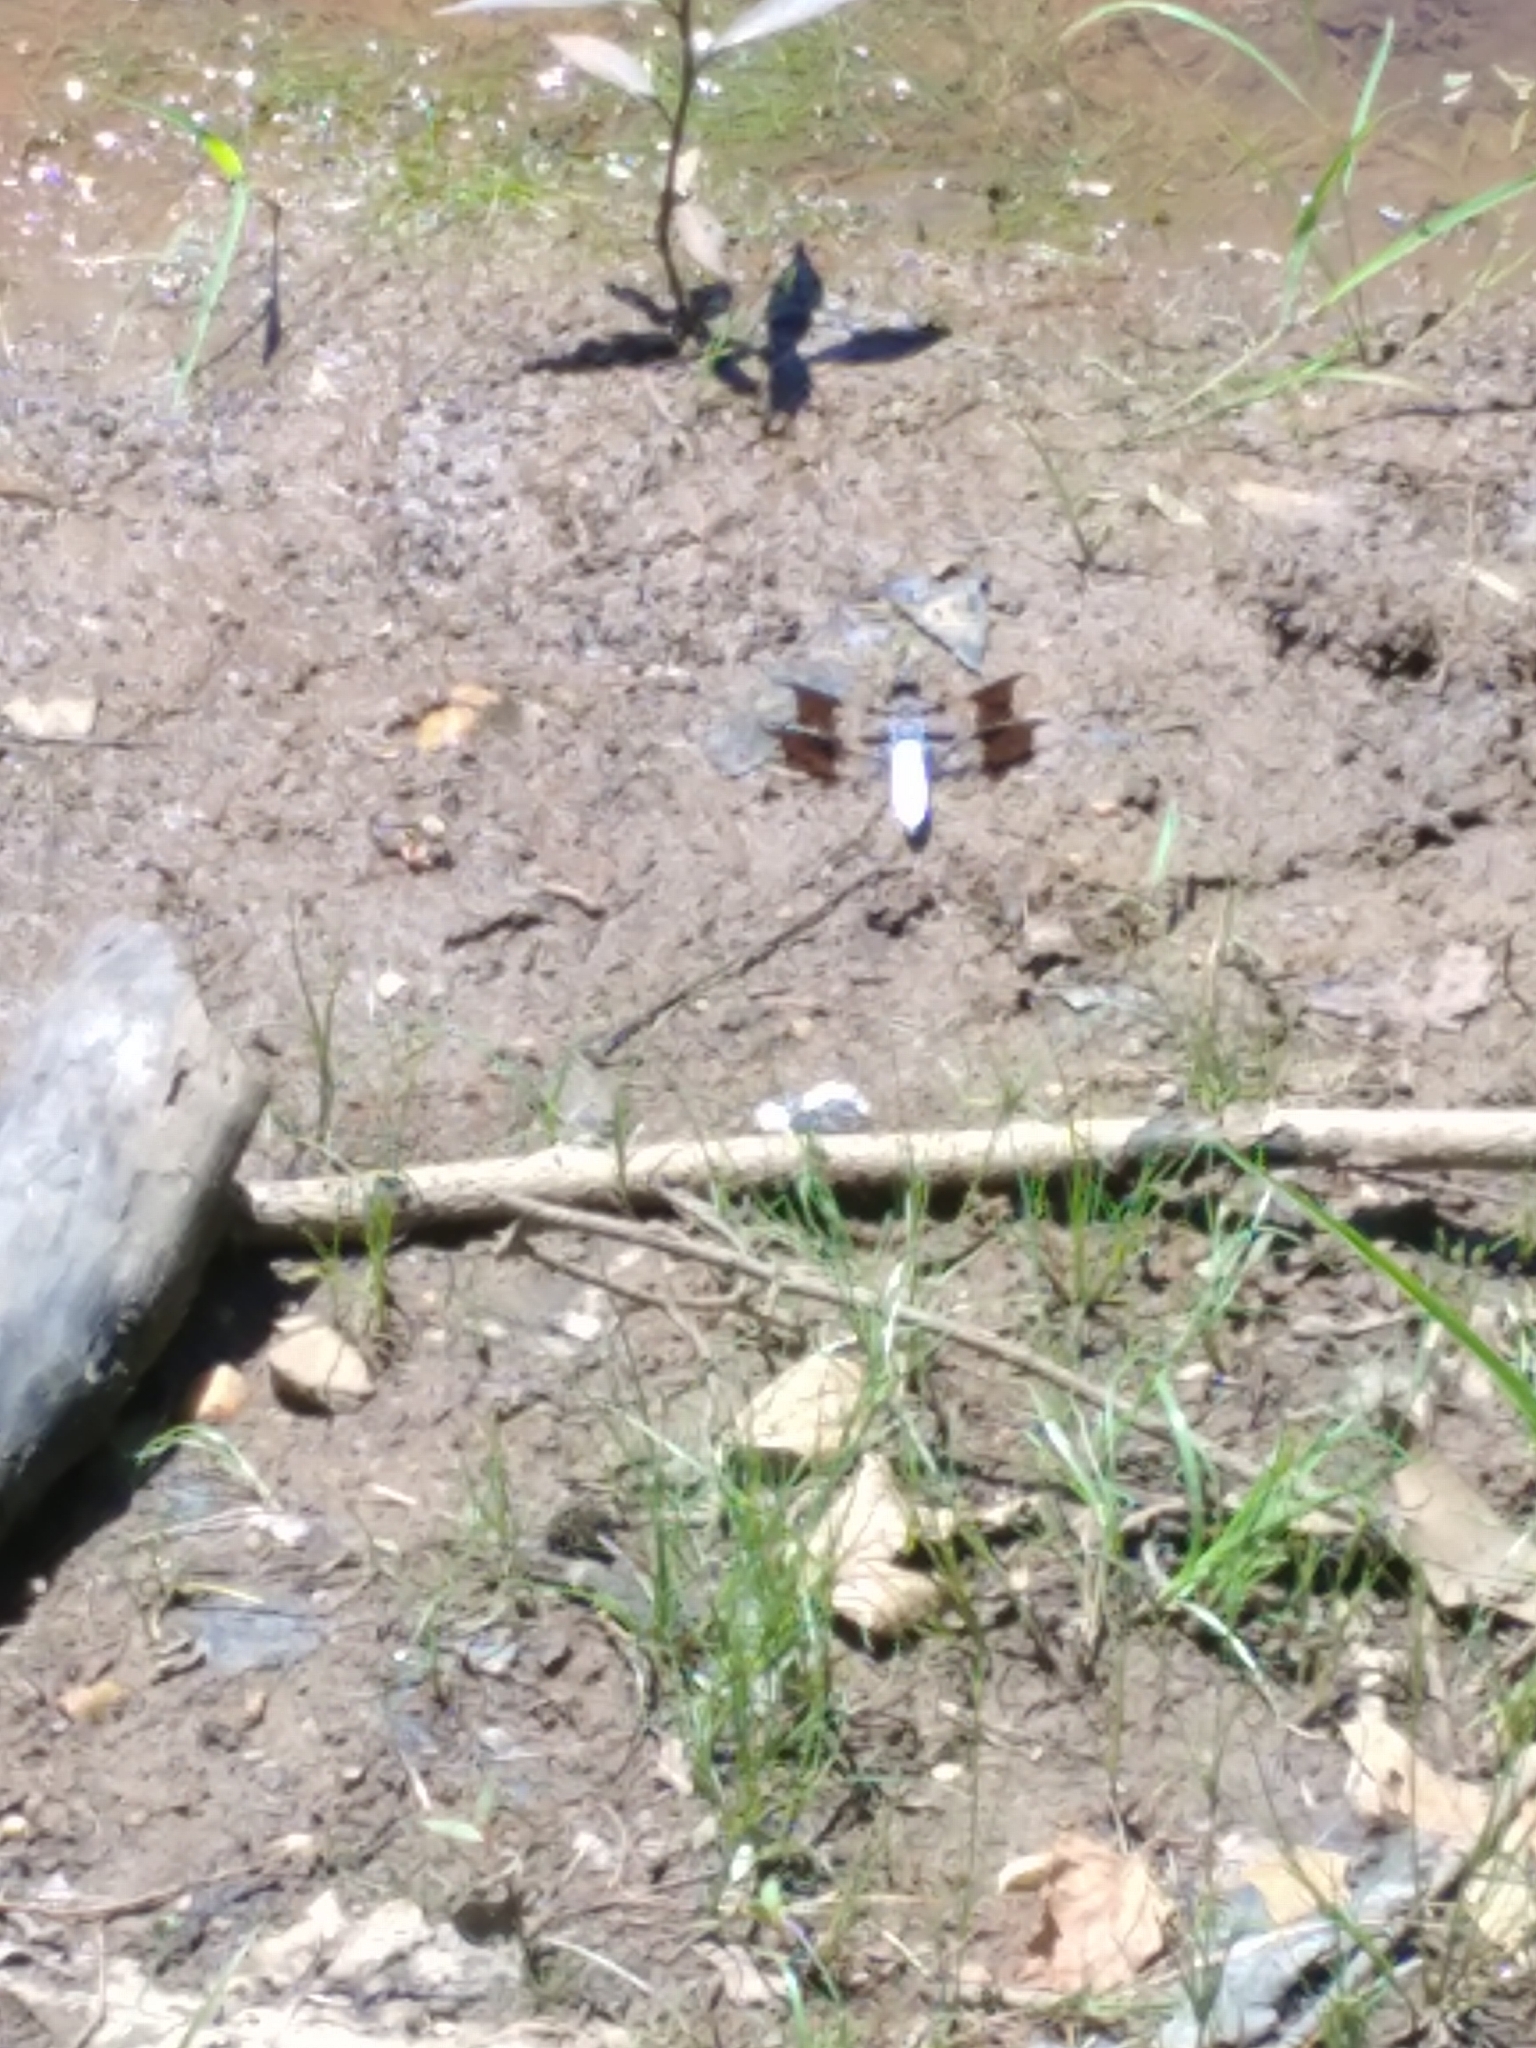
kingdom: Animalia
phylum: Arthropoda
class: Insecta
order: Odonata
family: Libellulidae
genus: Plathemis
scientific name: Plathemis lydia
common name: Common whitetail
